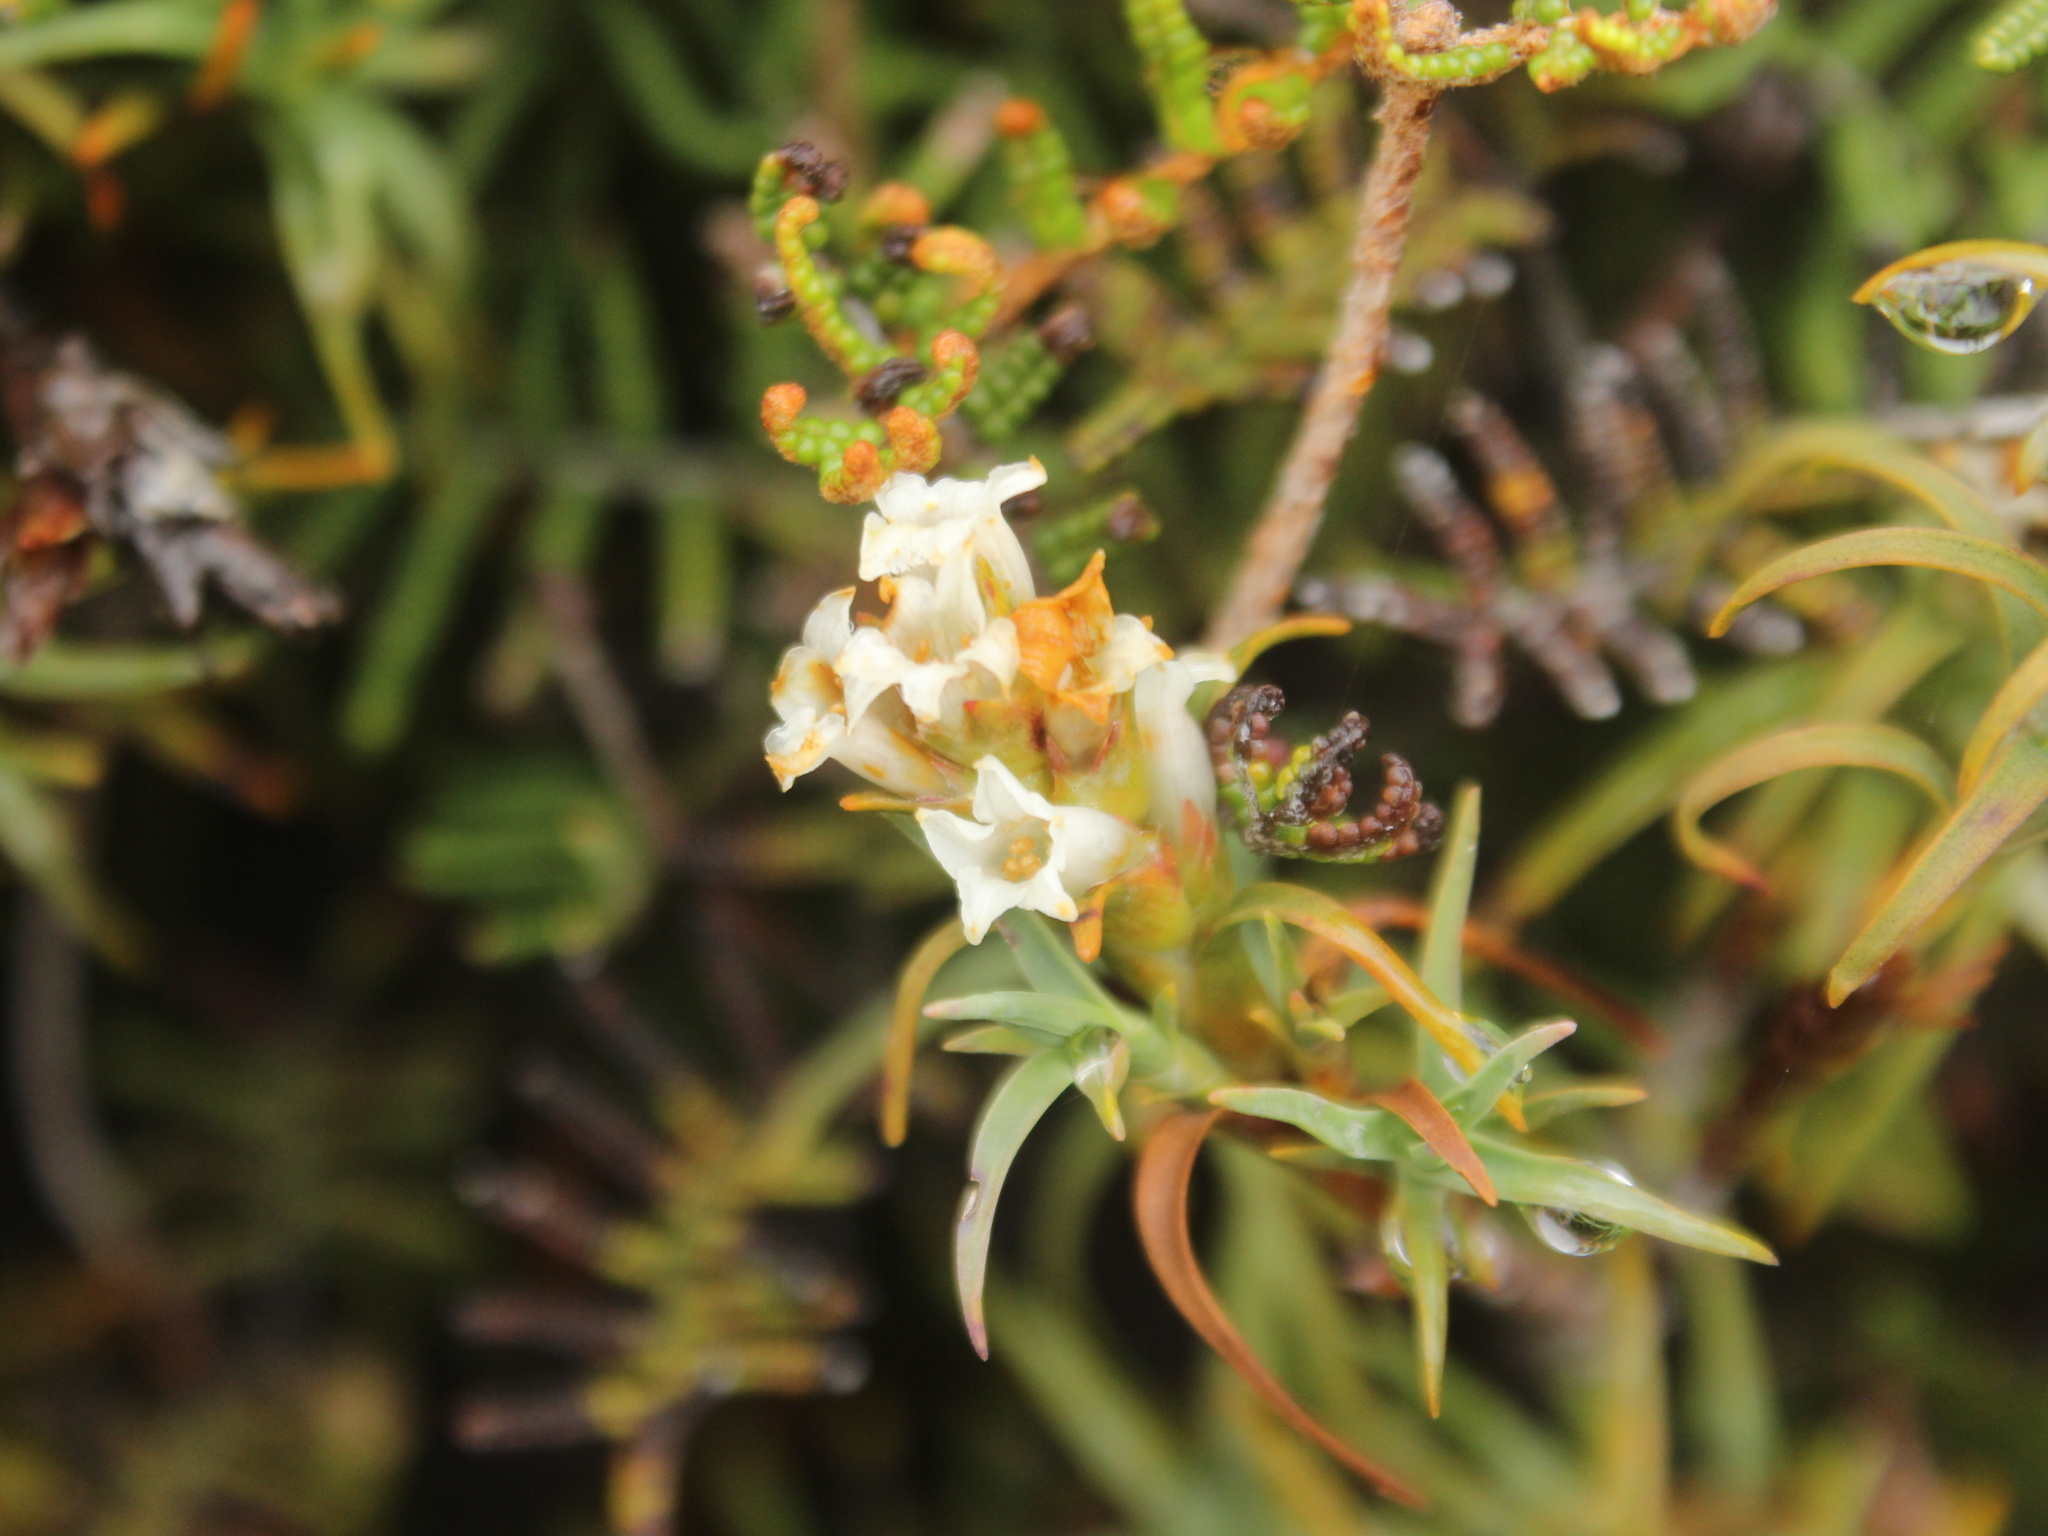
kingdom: Plantae
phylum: Tracheophyta
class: Magnoliopsida
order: Ericales
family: Ericaceae
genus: Dracophyllum
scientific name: Dracophyllum recurvum
